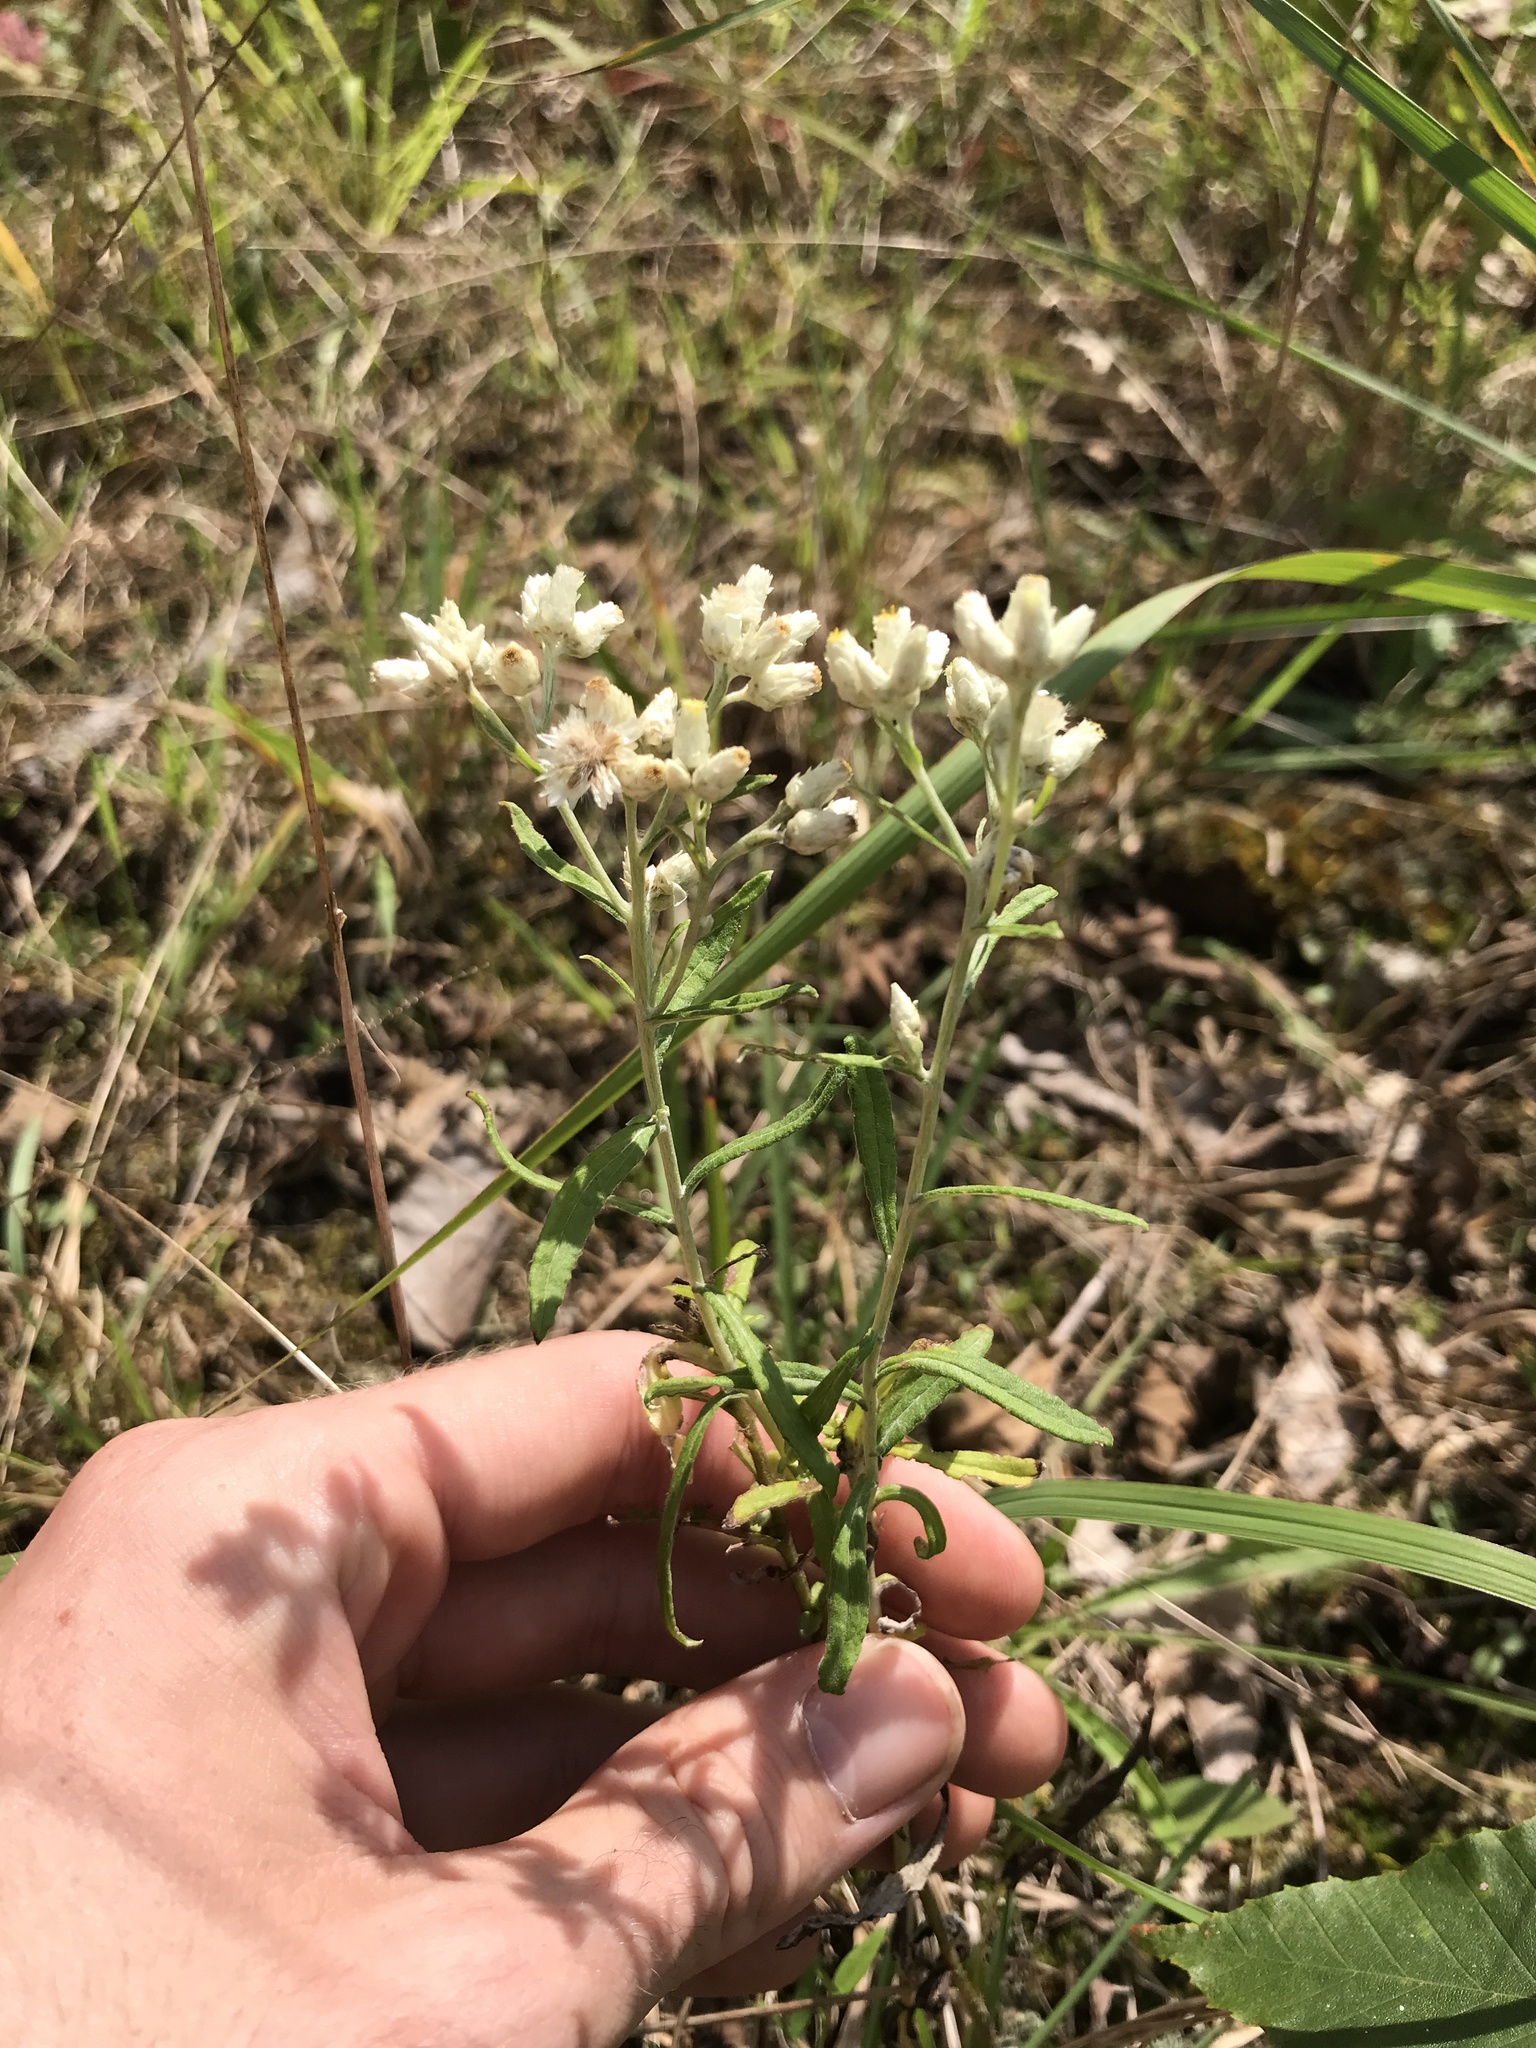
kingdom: Plantae
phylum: Tracheophyta
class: Magnoliopsida
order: Asterales
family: Asteraceae
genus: Pseudognaphalium
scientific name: Pseudognaphalium obtusifolium
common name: Eastern rabbit-tobacco
